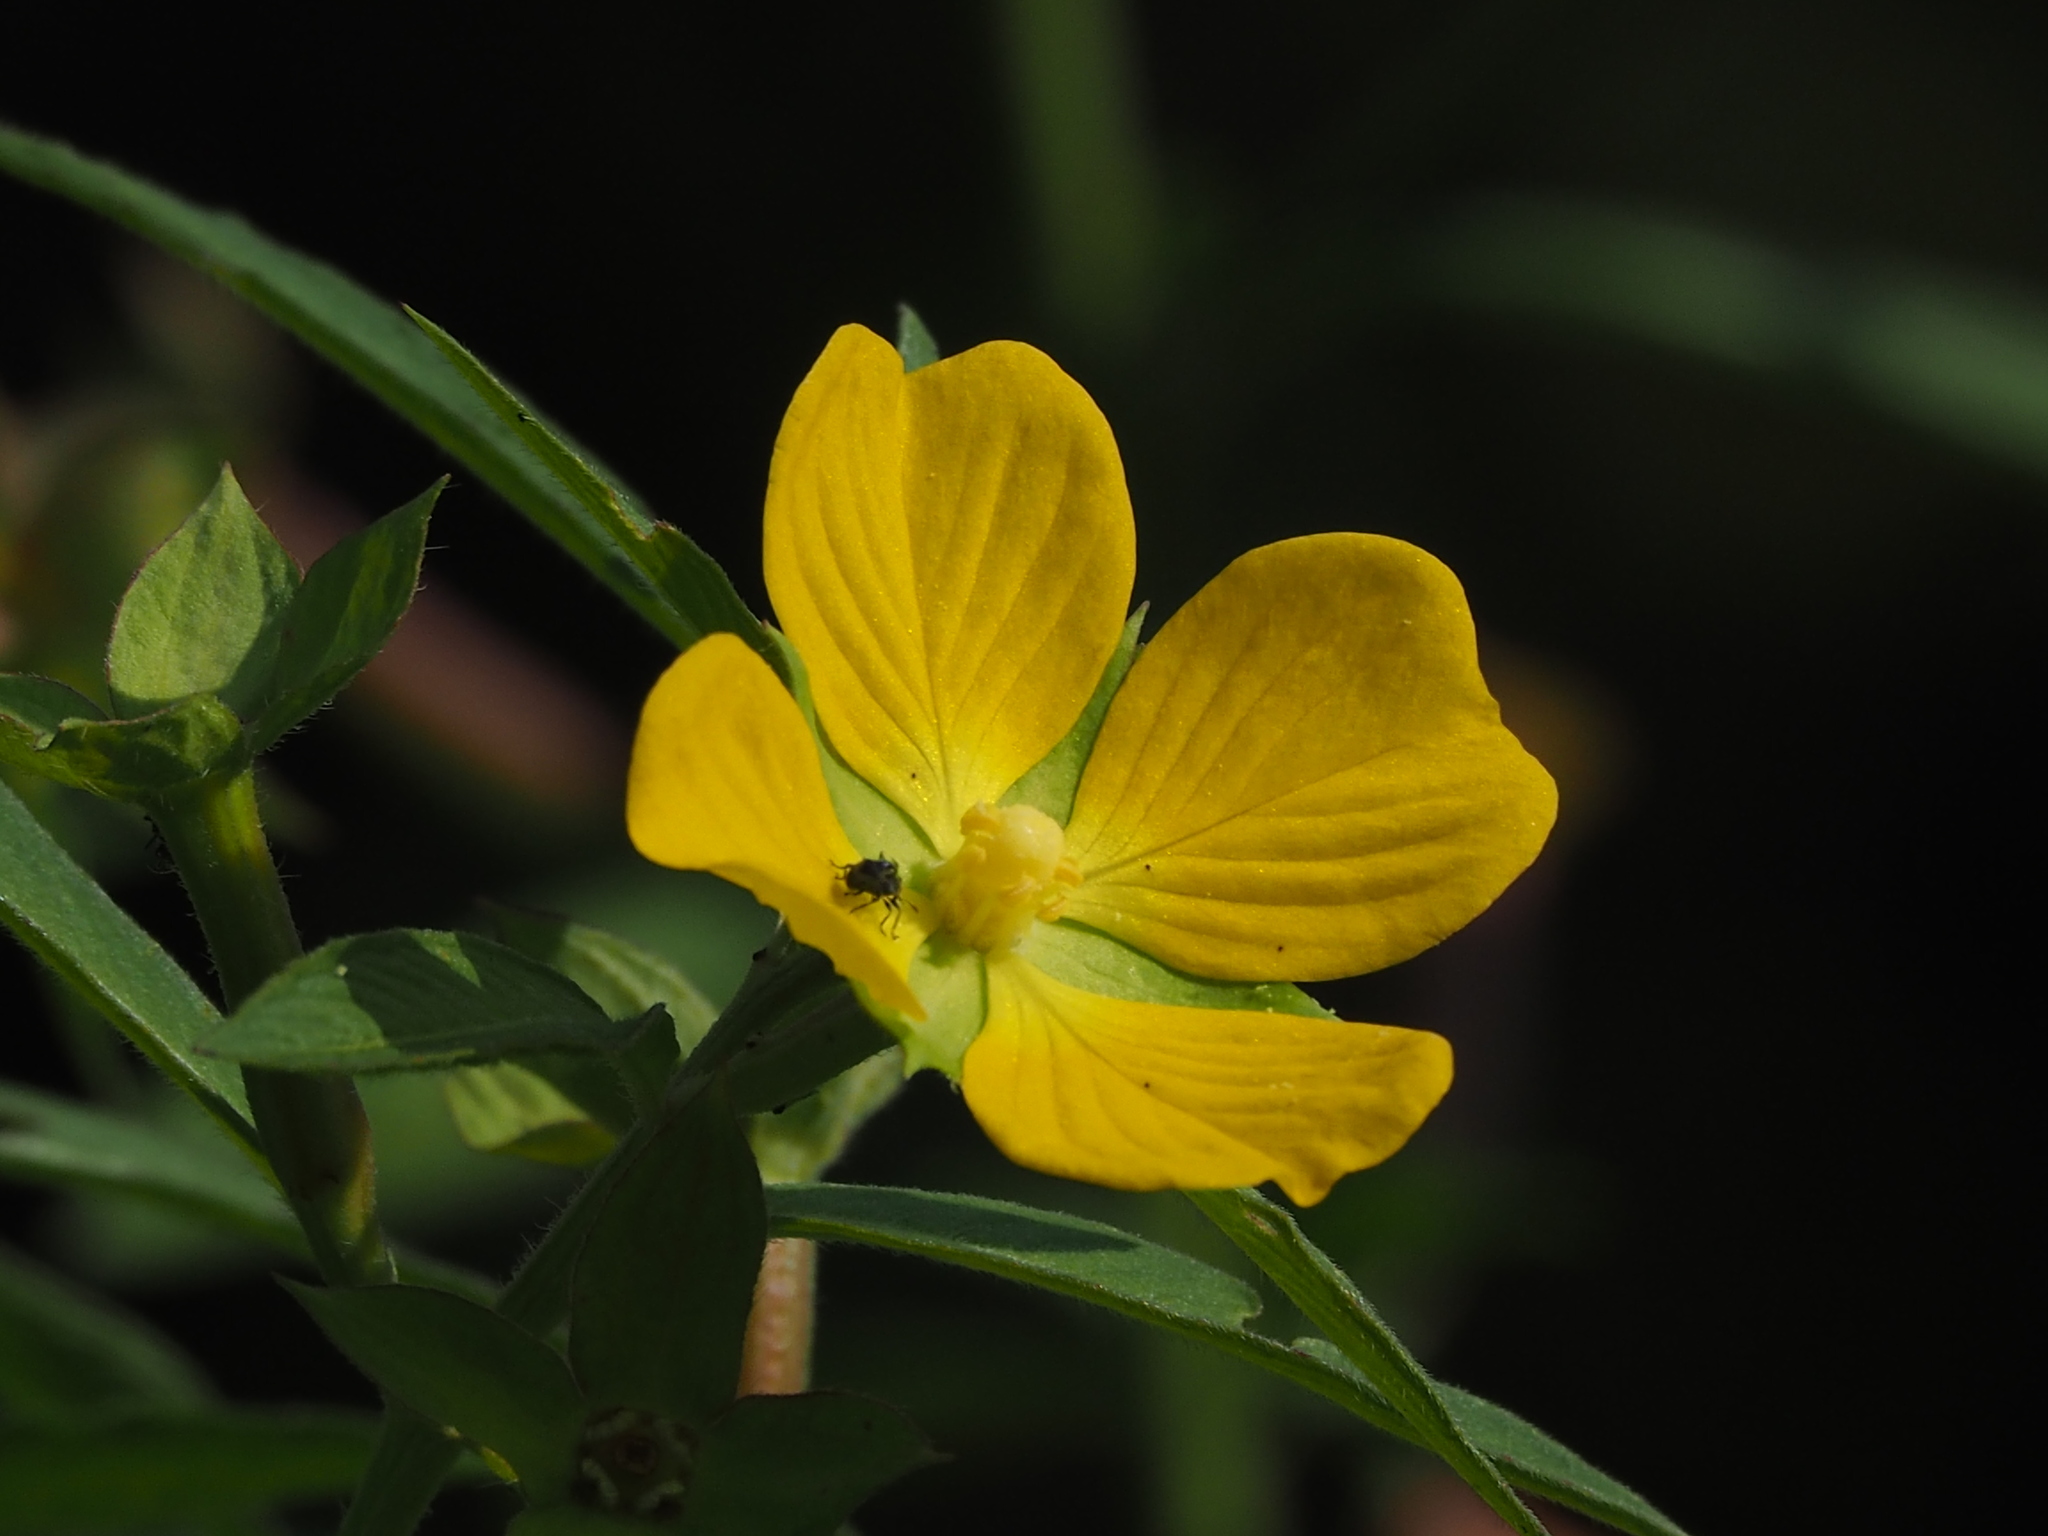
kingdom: Plantae
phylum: Tracheophyta
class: Magnoliopsida
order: Myrtales
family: Onagraceae
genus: Ludwigia
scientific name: Ludwigia octovalvis
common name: Water-primrose
